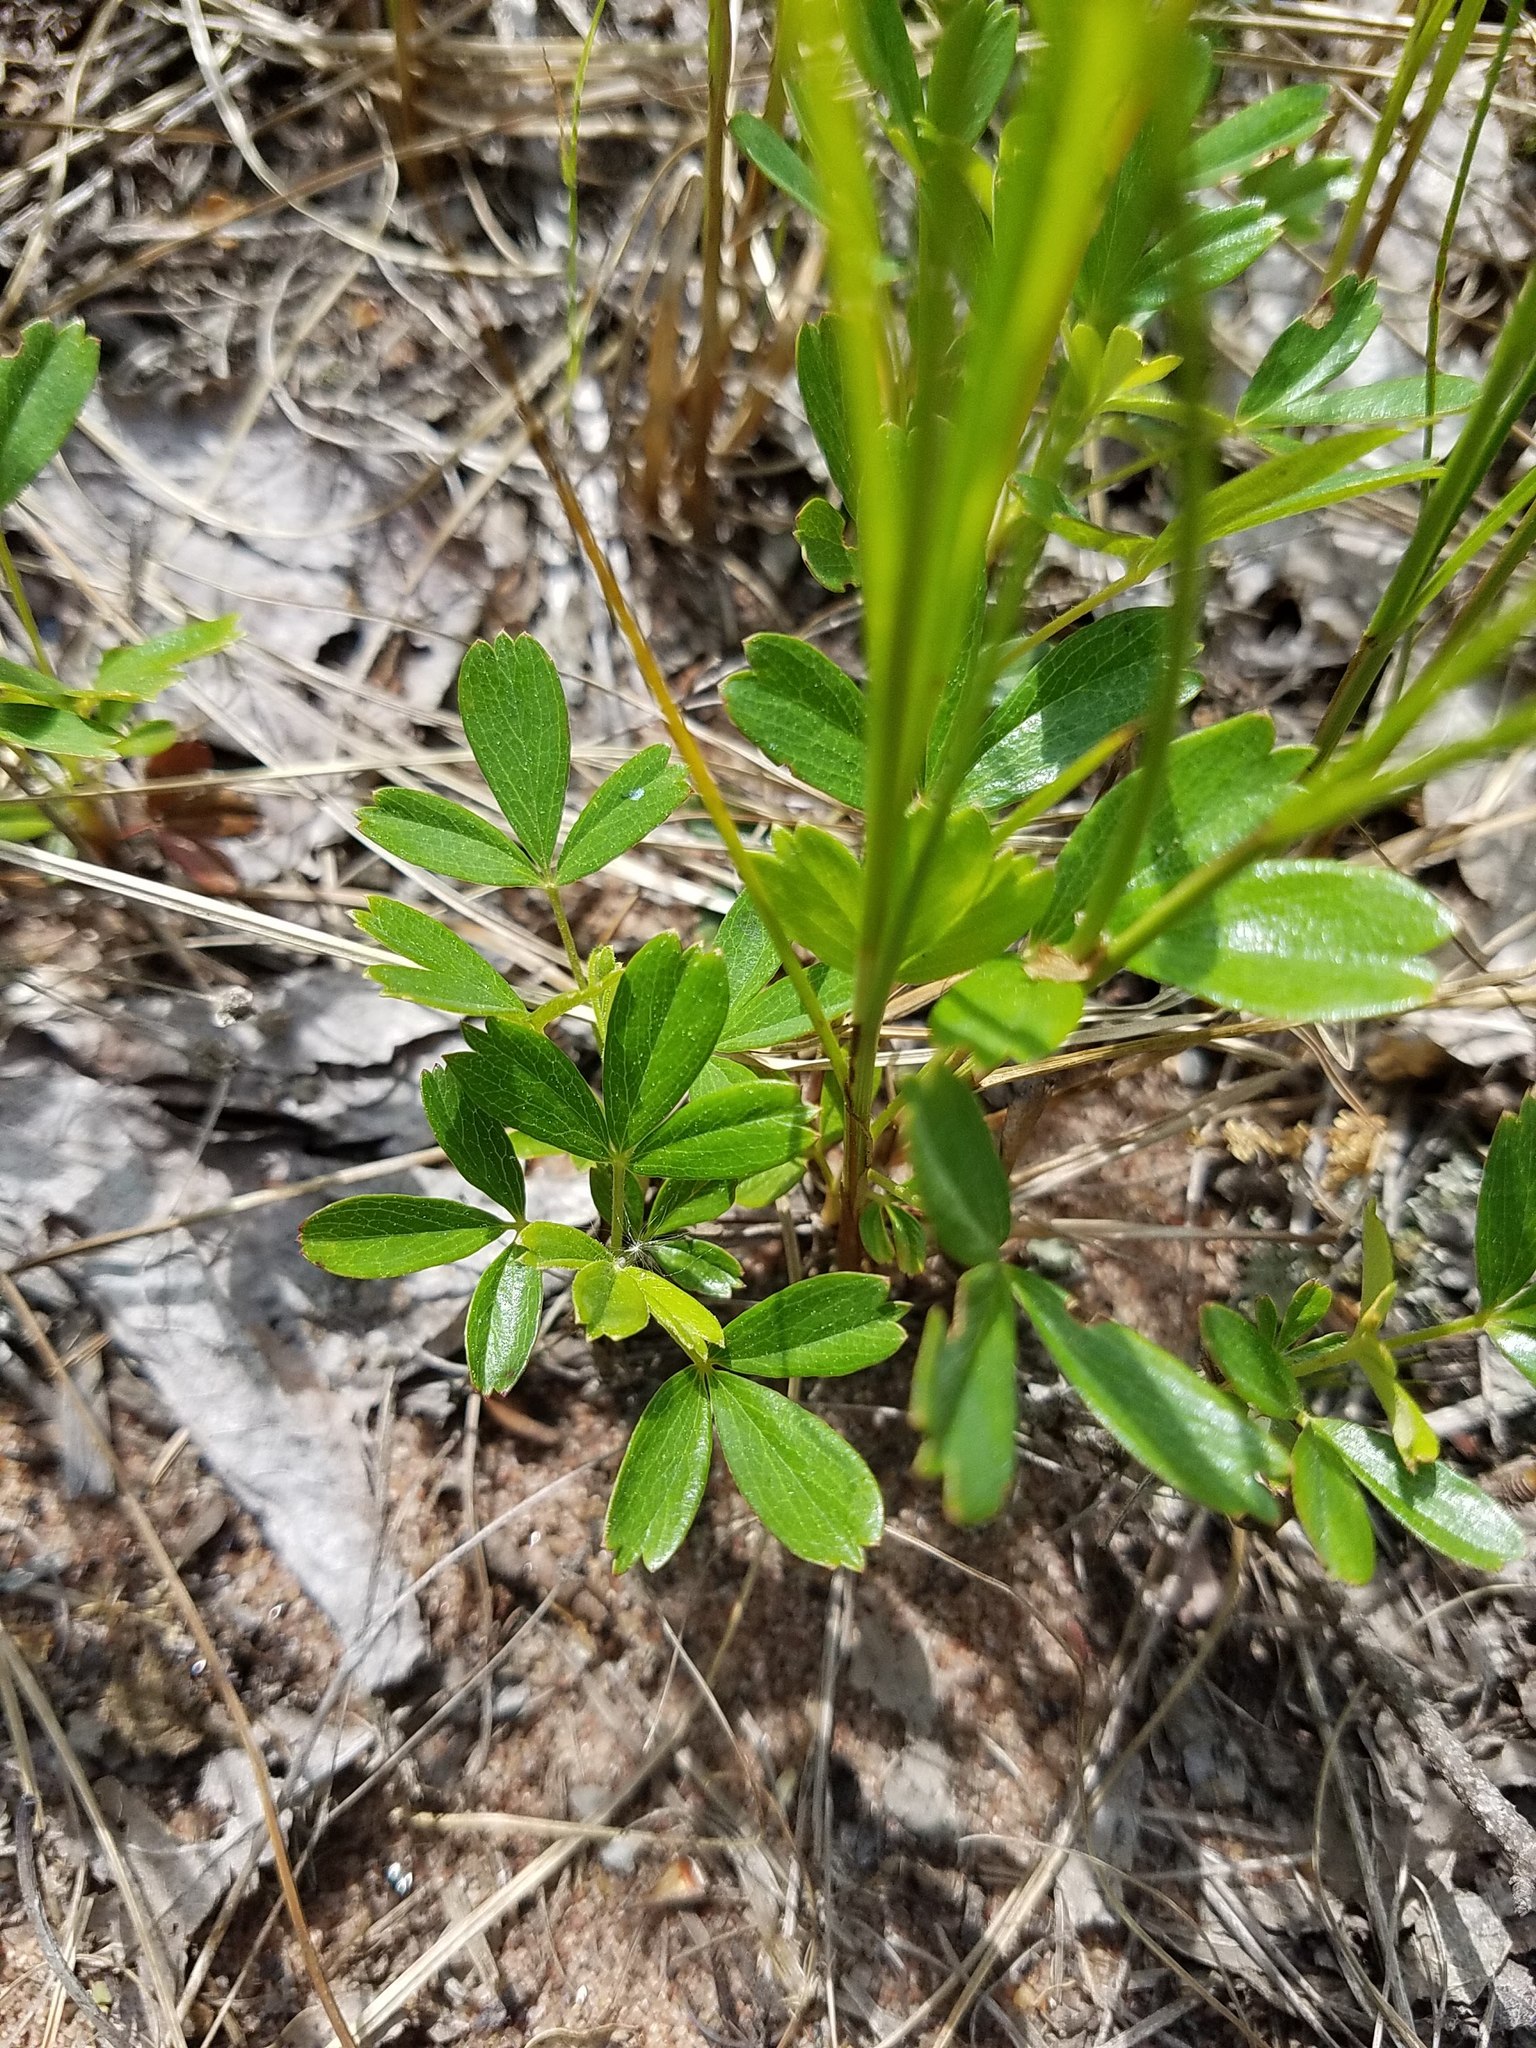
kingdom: Plantae
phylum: Tracheophyta
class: Magnoliopsida
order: Rosales
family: Rosaceae
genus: Sibbaldia
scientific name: Sibbaldia tridentata
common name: Three-toothed cinquefoil
